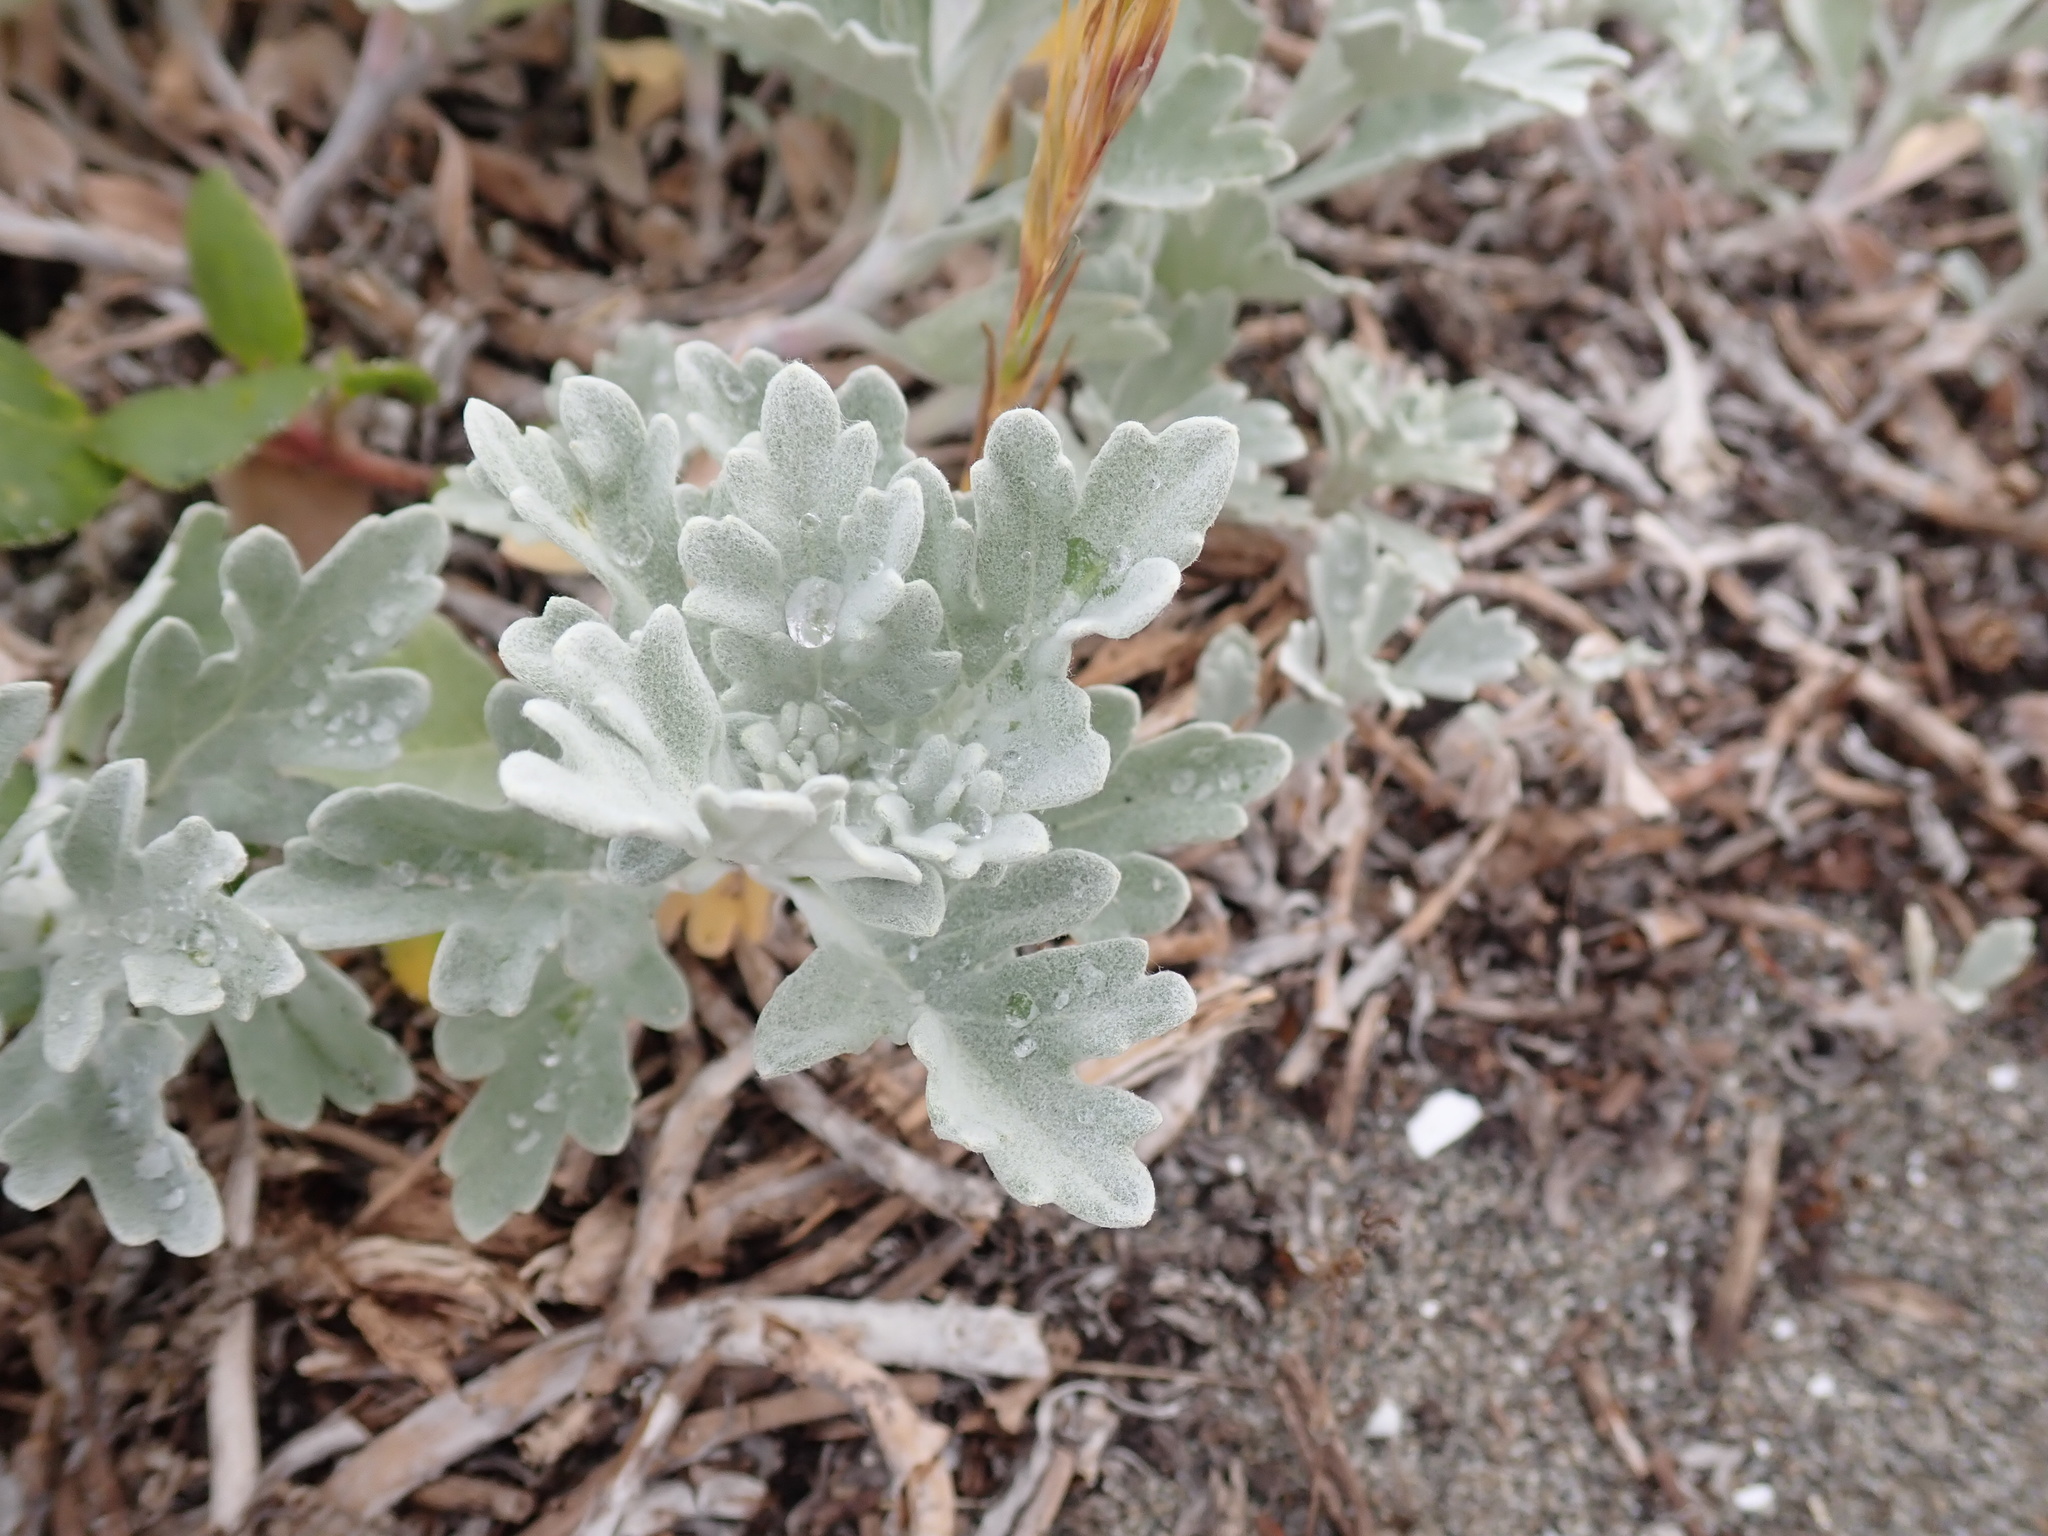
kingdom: Plantae
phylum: Tracheophyta
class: Magnoliopsida
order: Asterales
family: Asteraceae
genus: Artemisia
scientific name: Artemisia stelleriana
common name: Beach wormwood
